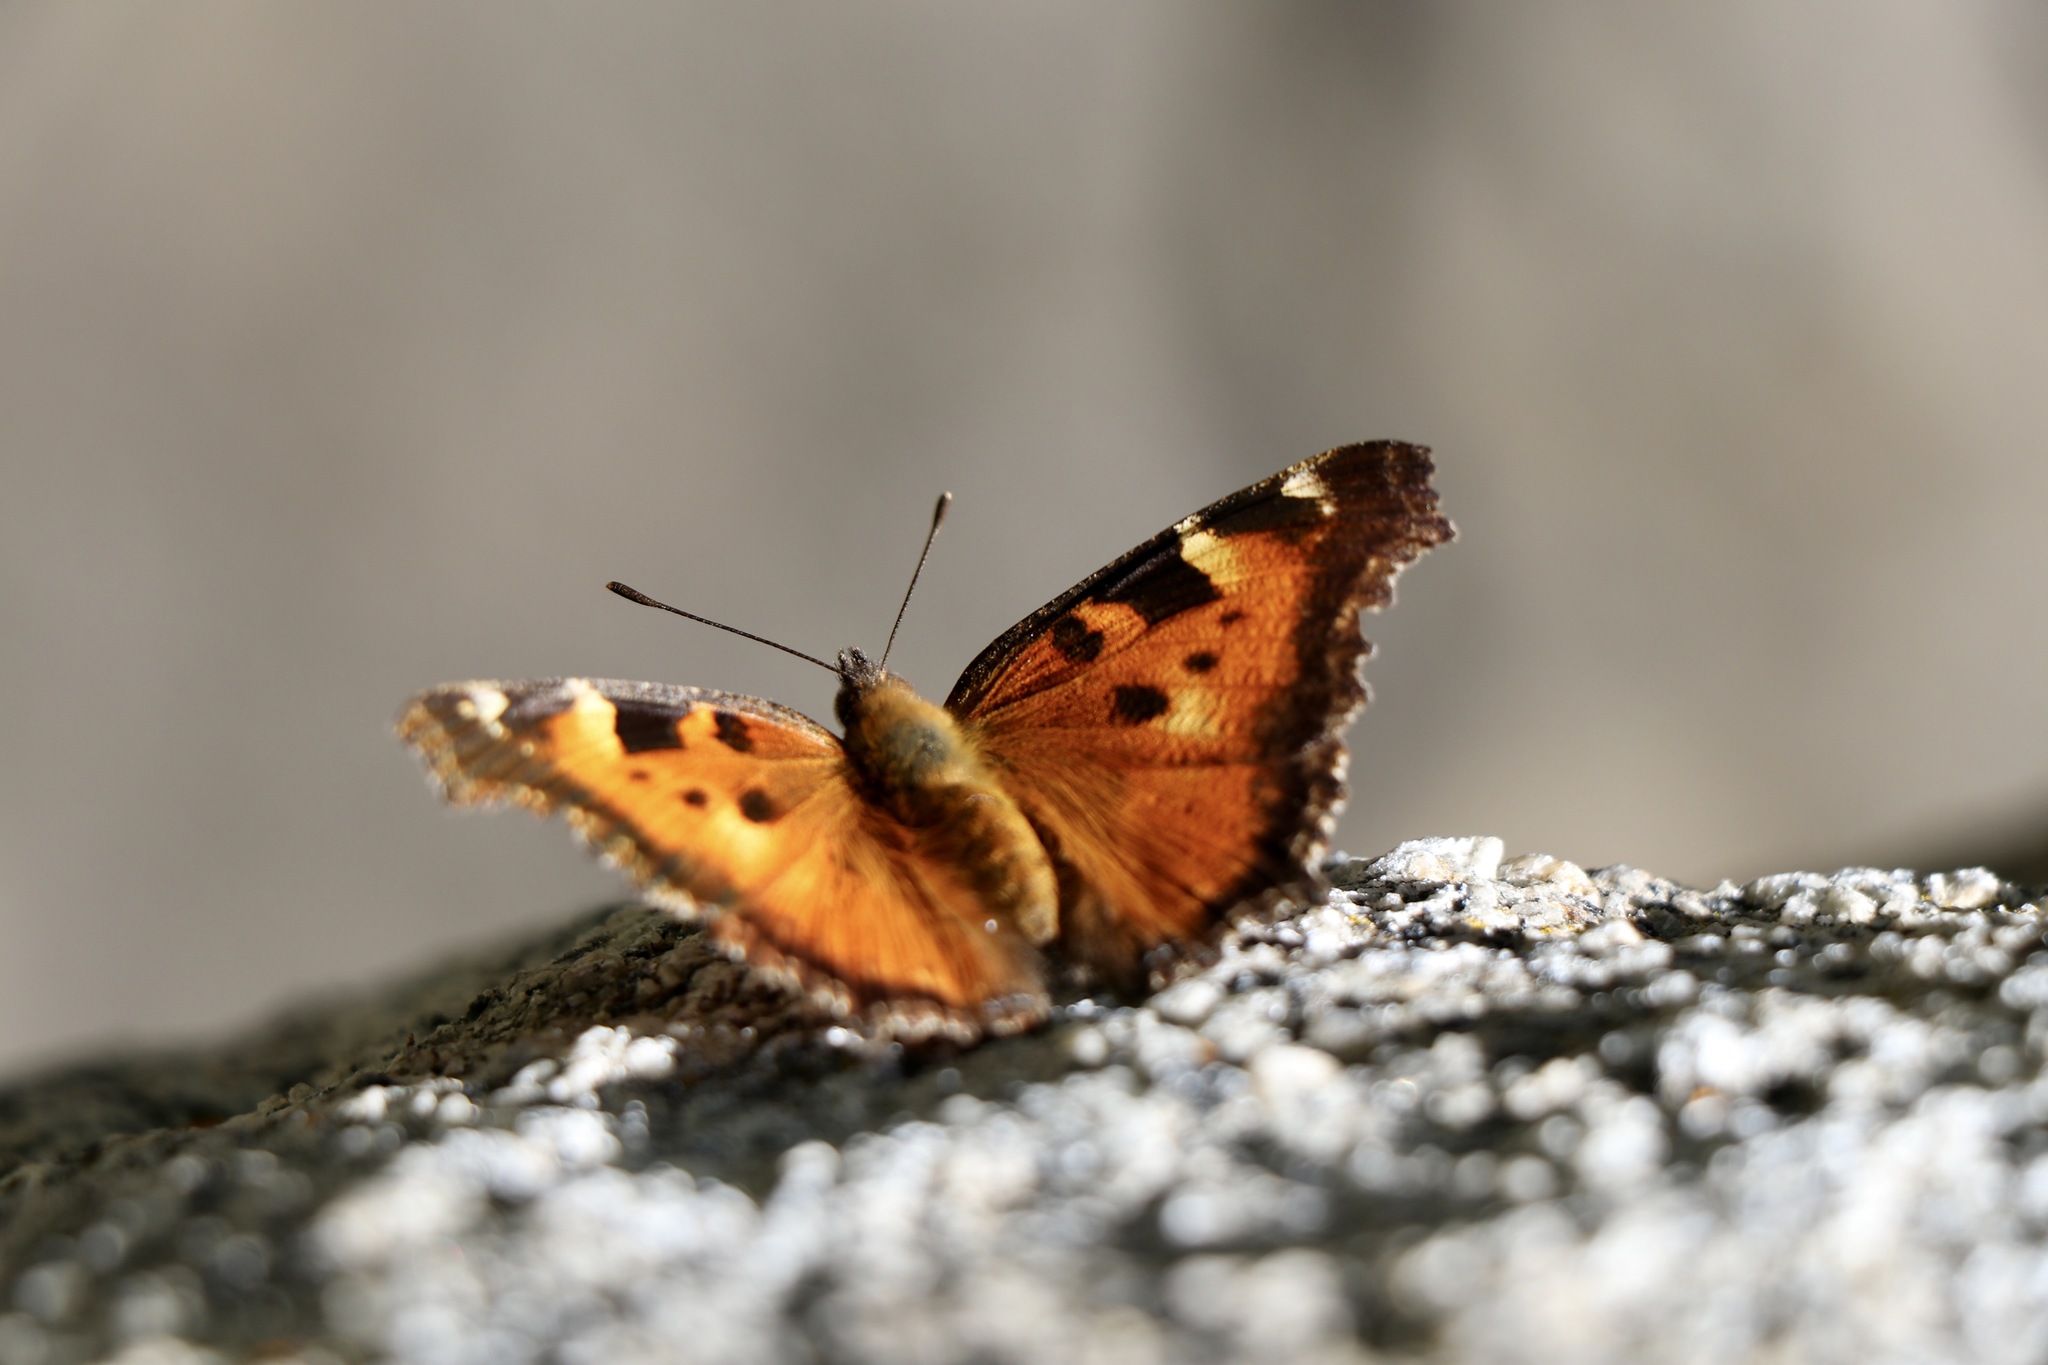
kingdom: Animalia
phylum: Arthropoda
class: Insecta
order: Lepidoptera
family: Nymphalidae
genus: Nymphalis
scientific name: Nymphalis californica
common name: California tortoiseshell
